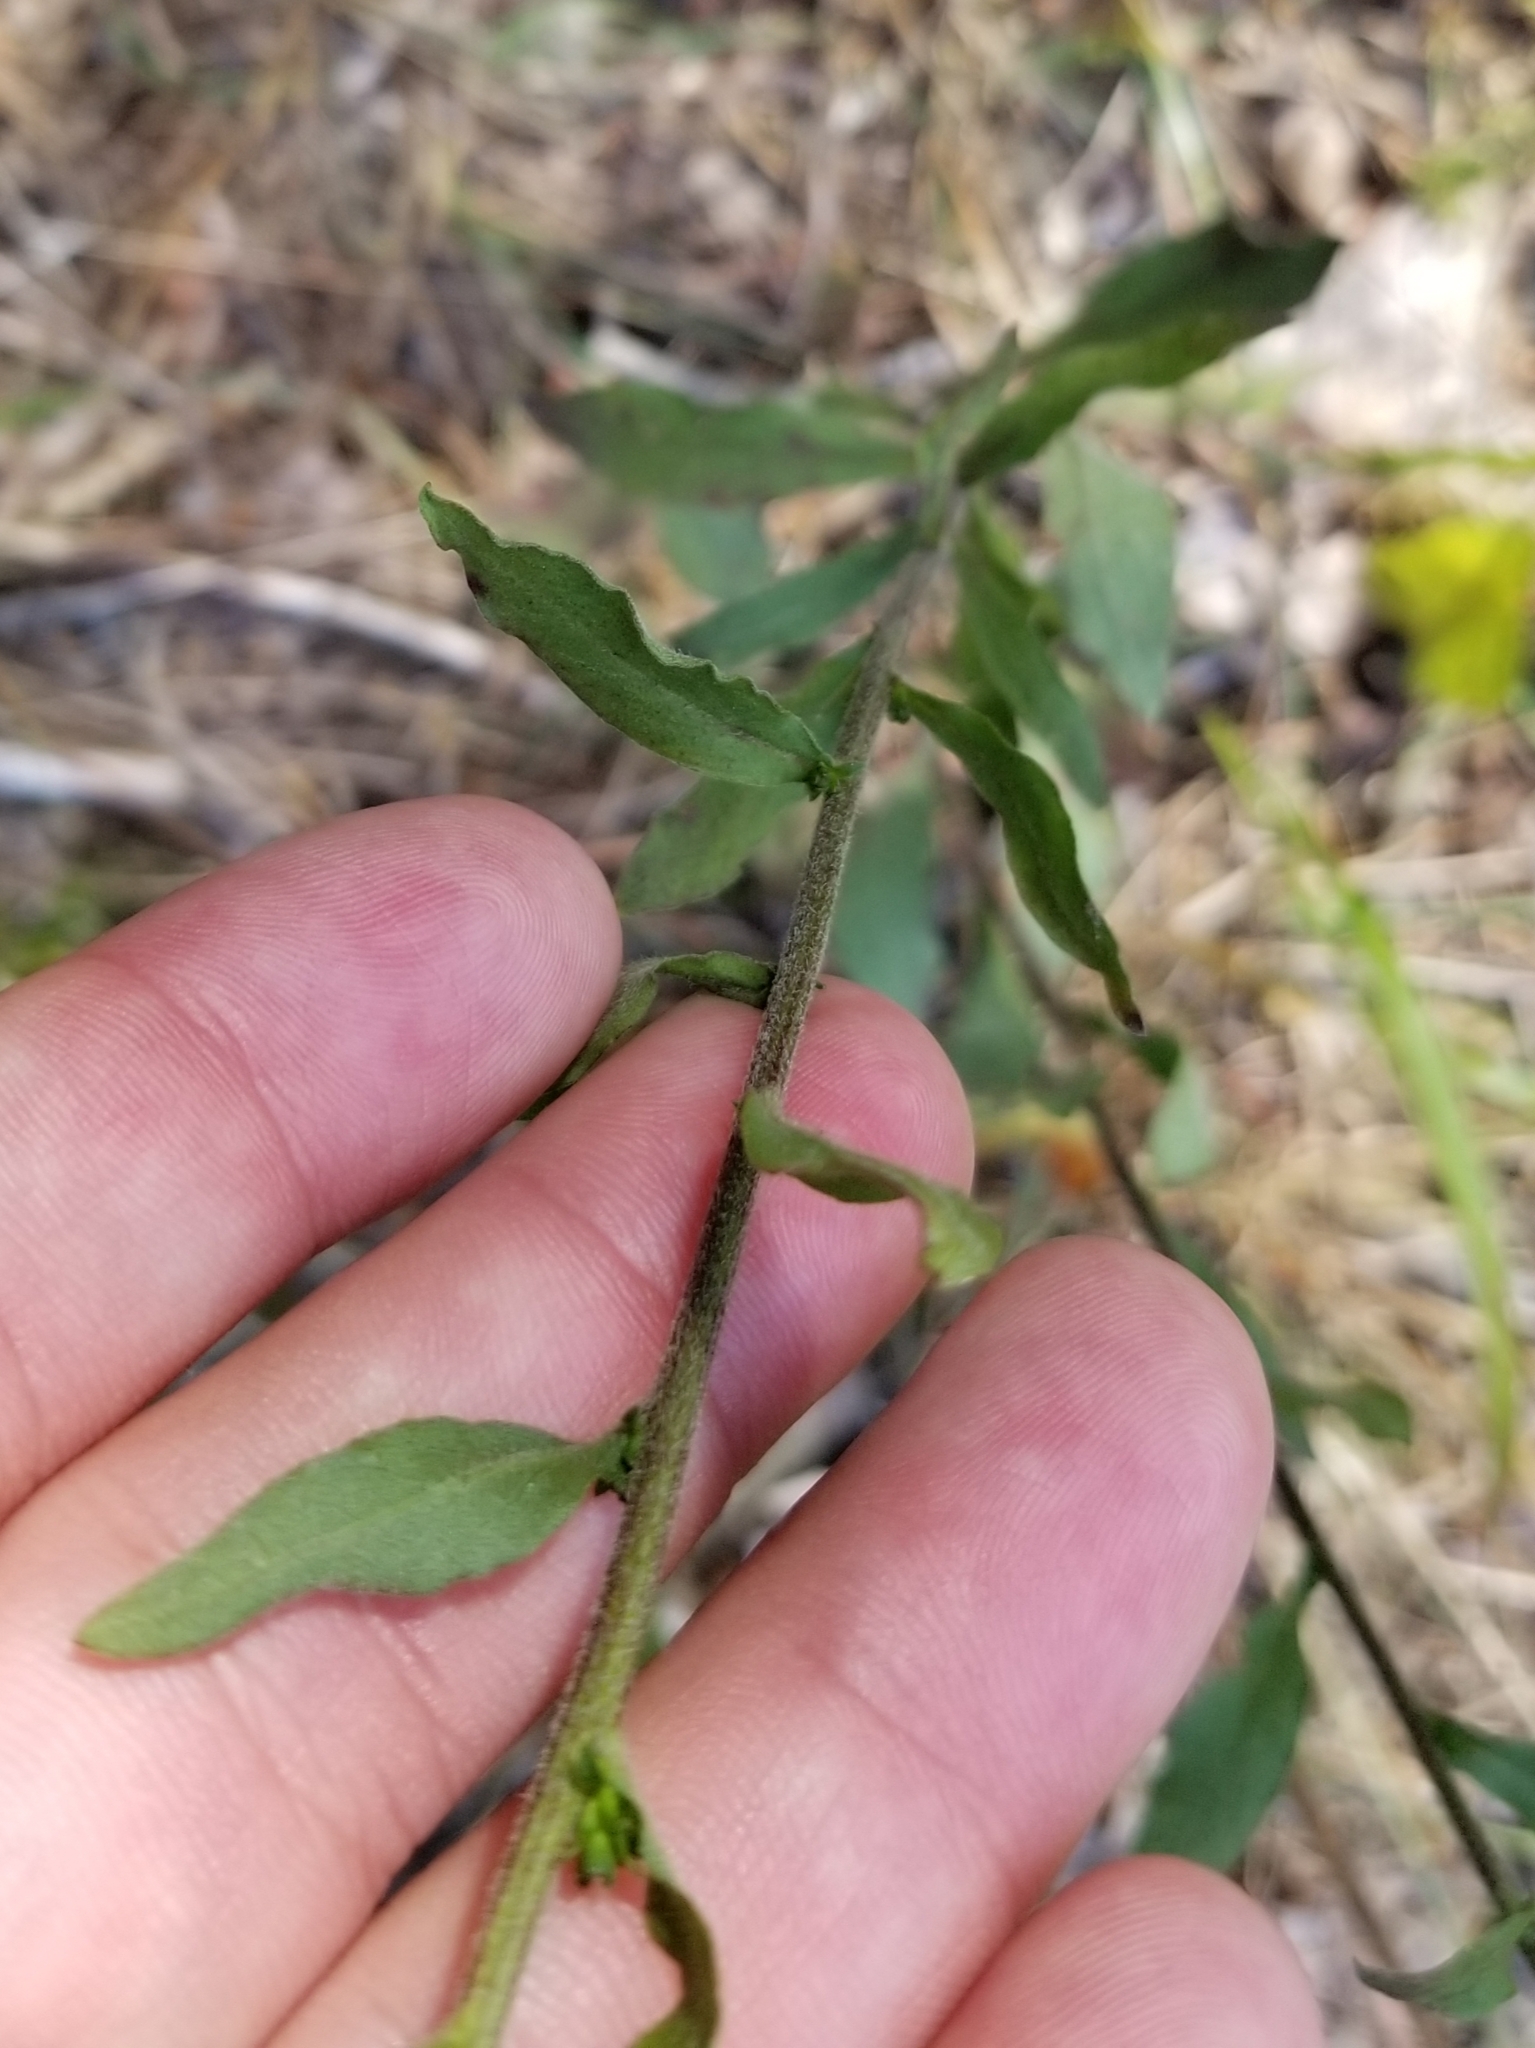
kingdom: Plantae
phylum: Tracheophyta
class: Magnoliopsida
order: Asterales
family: Asteraceae
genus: Solidago
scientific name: Solidago hispida
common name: Hairy goldenrod
